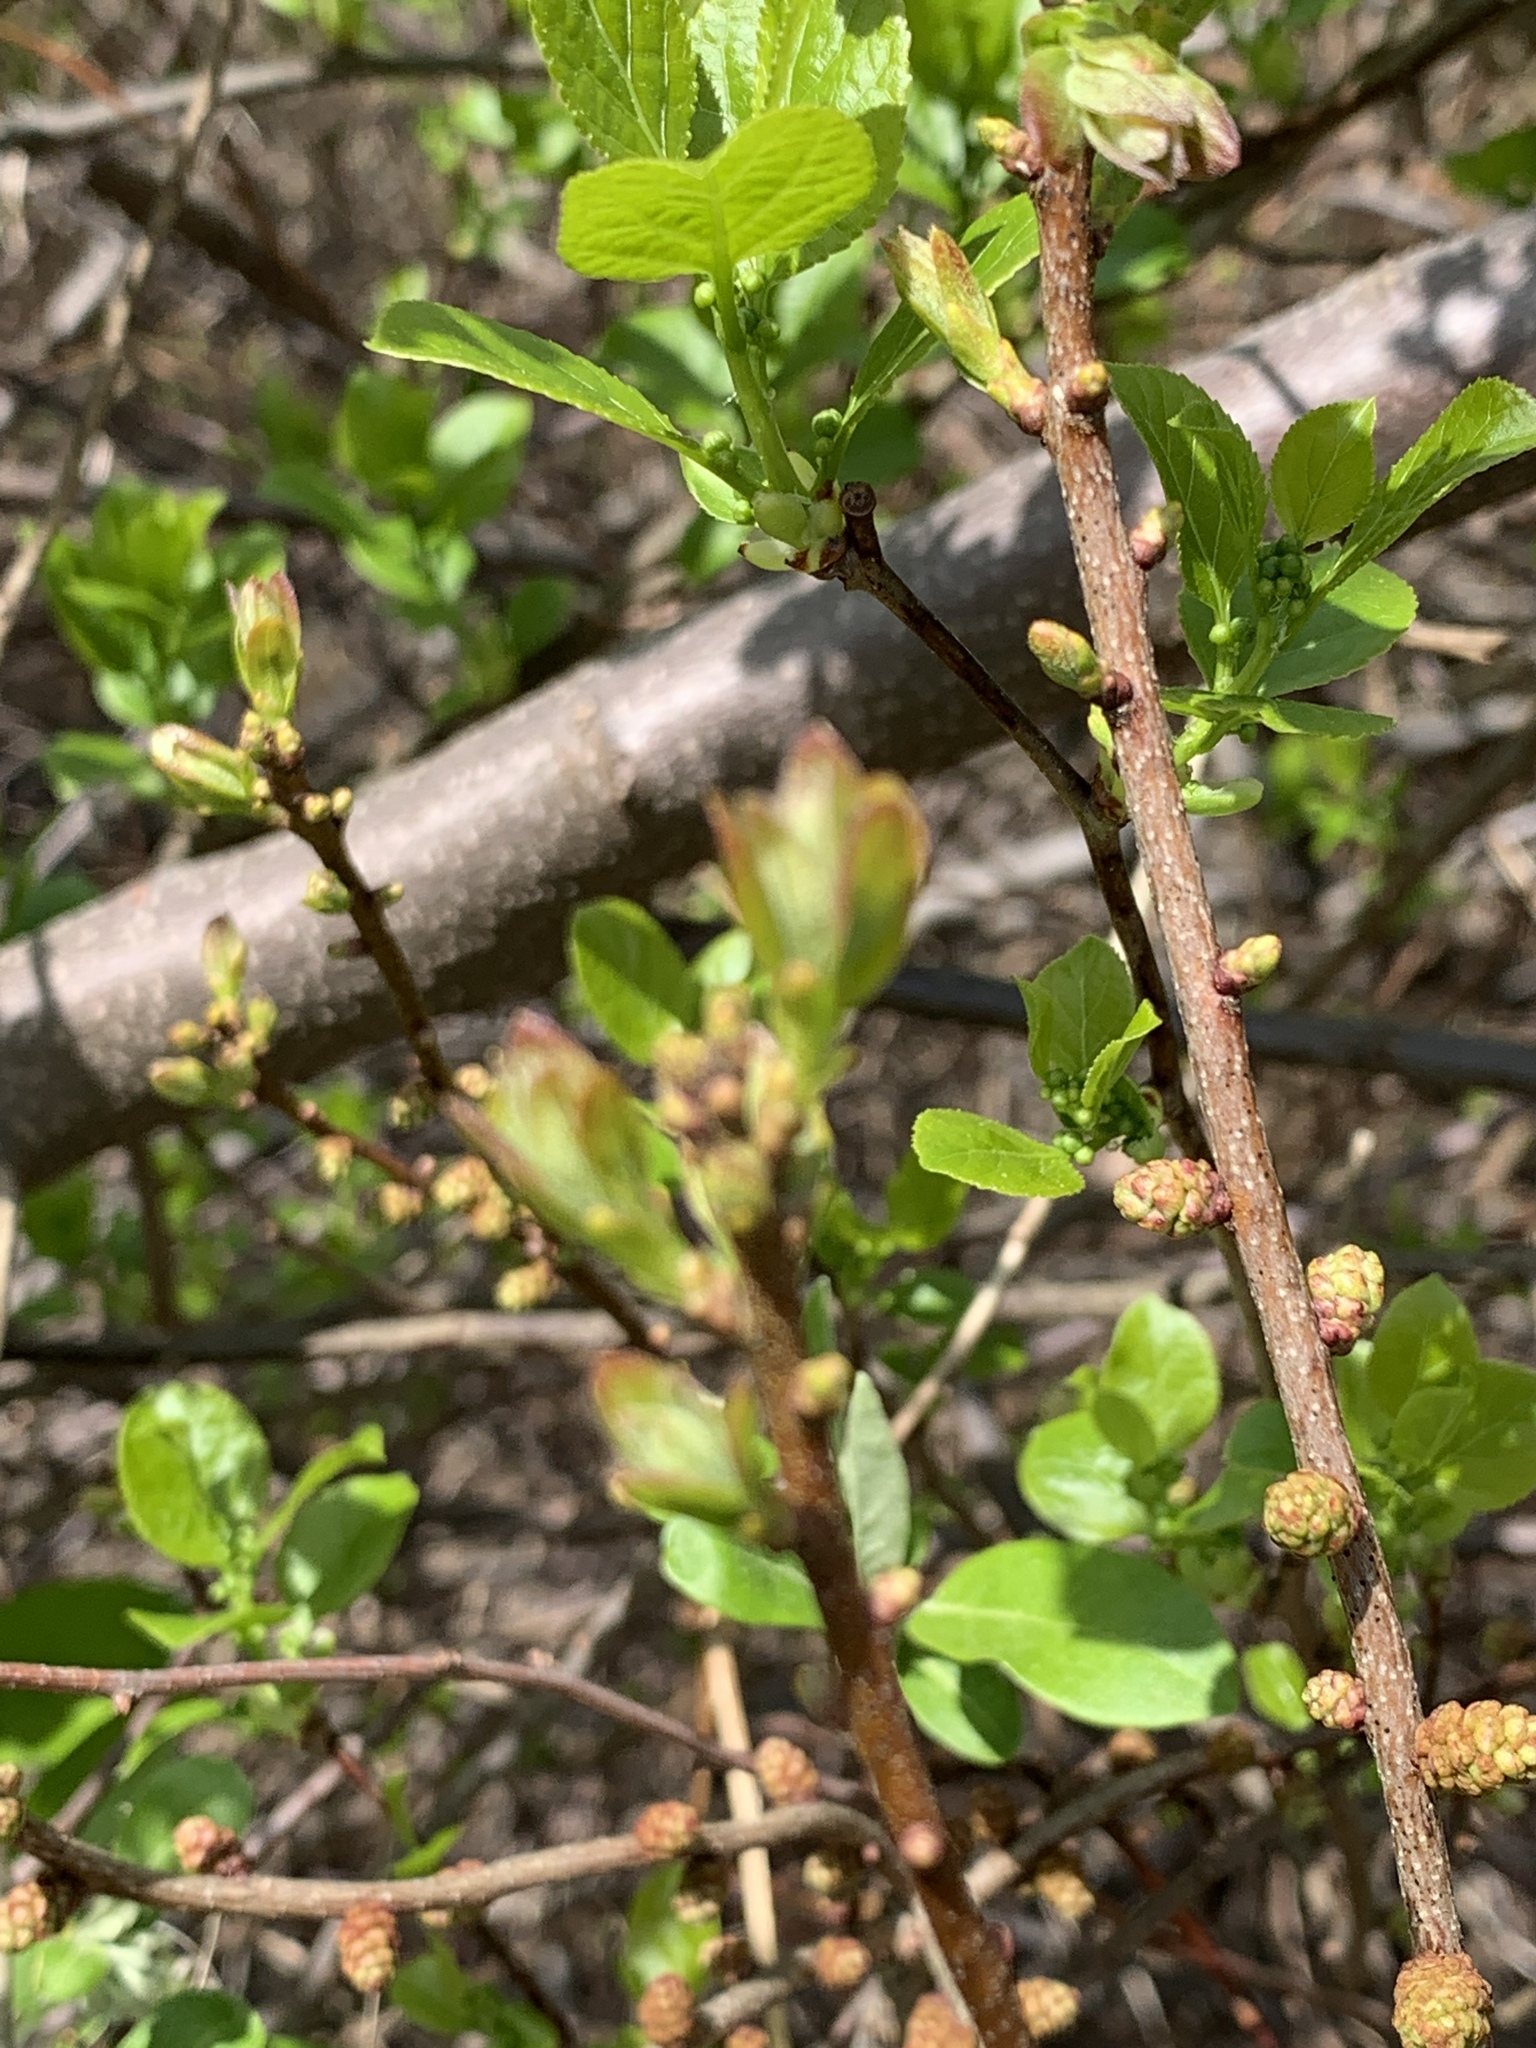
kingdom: Plantae
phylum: Tracheophyta
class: Magnoliopsida
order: Fagales
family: Myricaceae
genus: Morella
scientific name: Morella pensylvanica
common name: Northern bayberry
